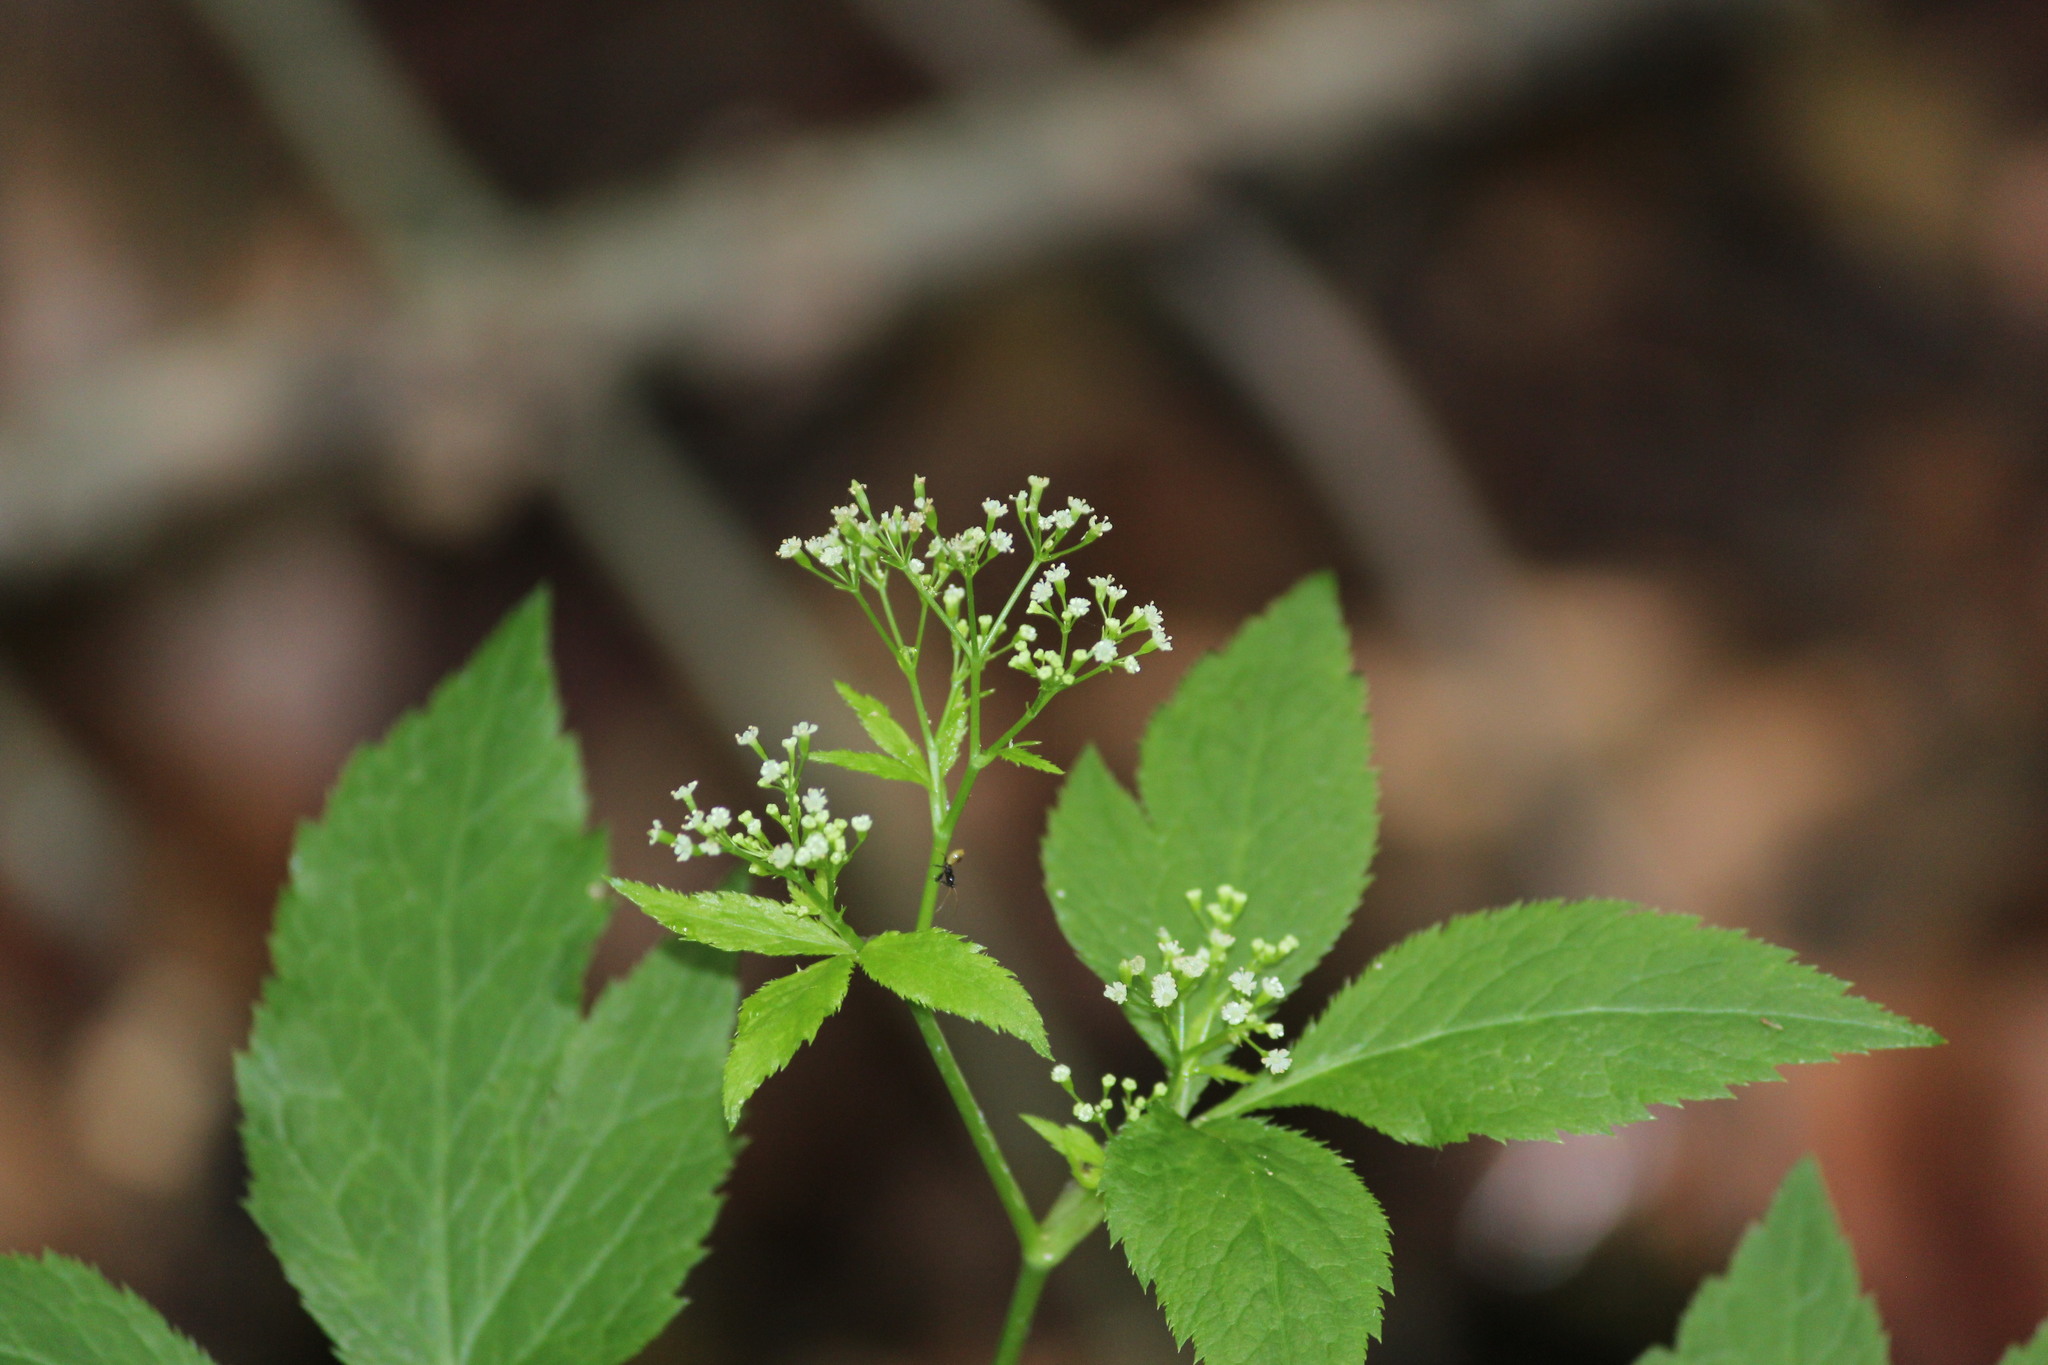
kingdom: Plantae
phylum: Tracheophyta
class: Magnoliopsida
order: Apiales
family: Apiaceae
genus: Cryptotaenia
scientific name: Cryptotaenia canadensis
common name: Honewort
